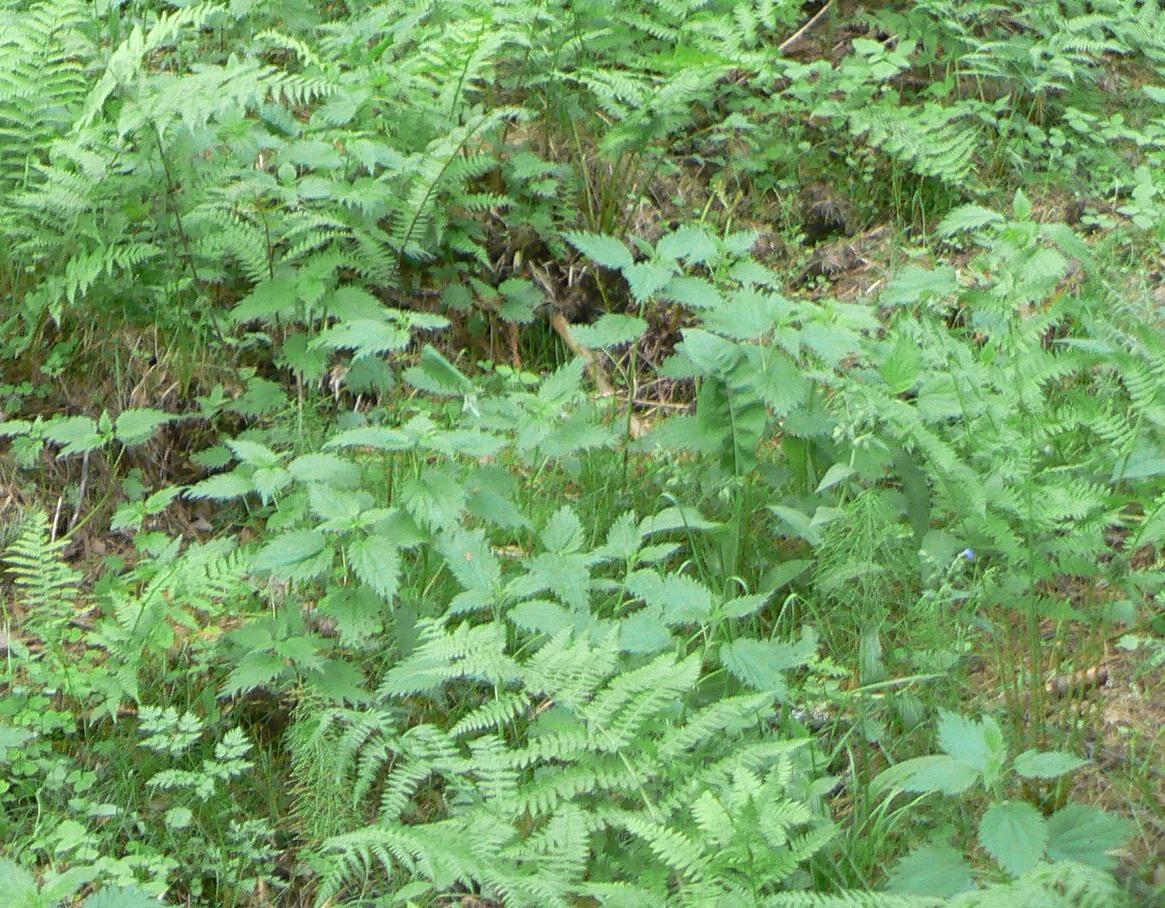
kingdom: Plantae
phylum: Tracheophyta
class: Magnoliopsida
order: Rosales
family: Urticaceae
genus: Urtica
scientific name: Urtica dioica
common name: Common nettle
